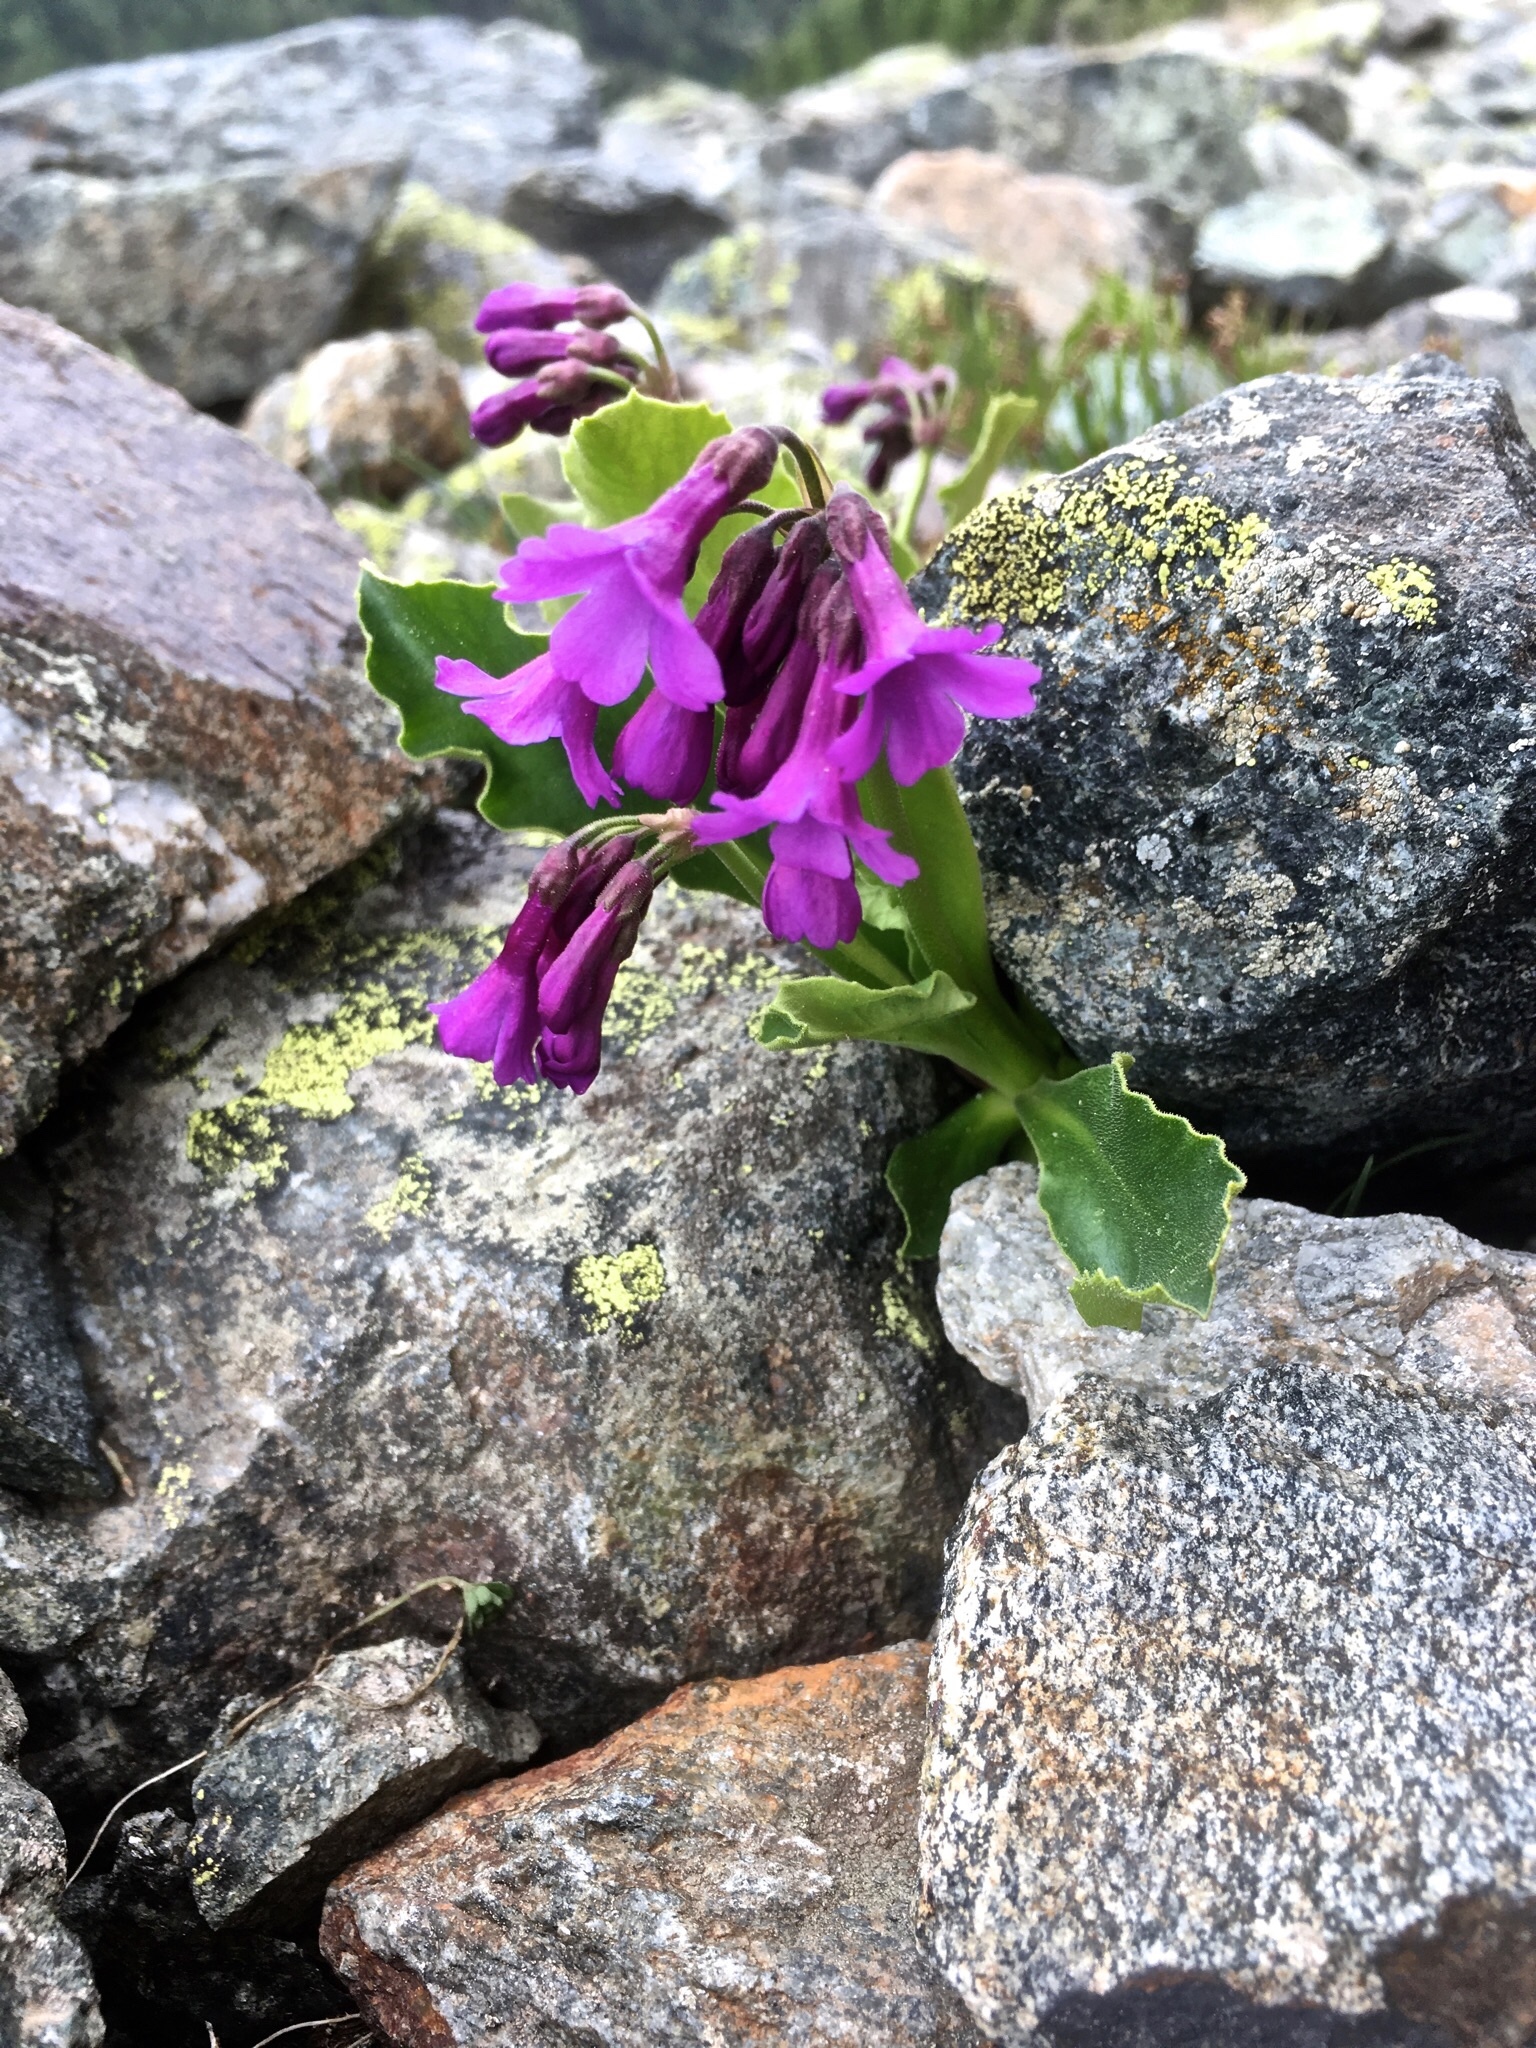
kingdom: Plantae
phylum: Tracheophyta
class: Magnoliopsida
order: Ericales
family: Primulaceae
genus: Primula
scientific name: Primula latifolia
